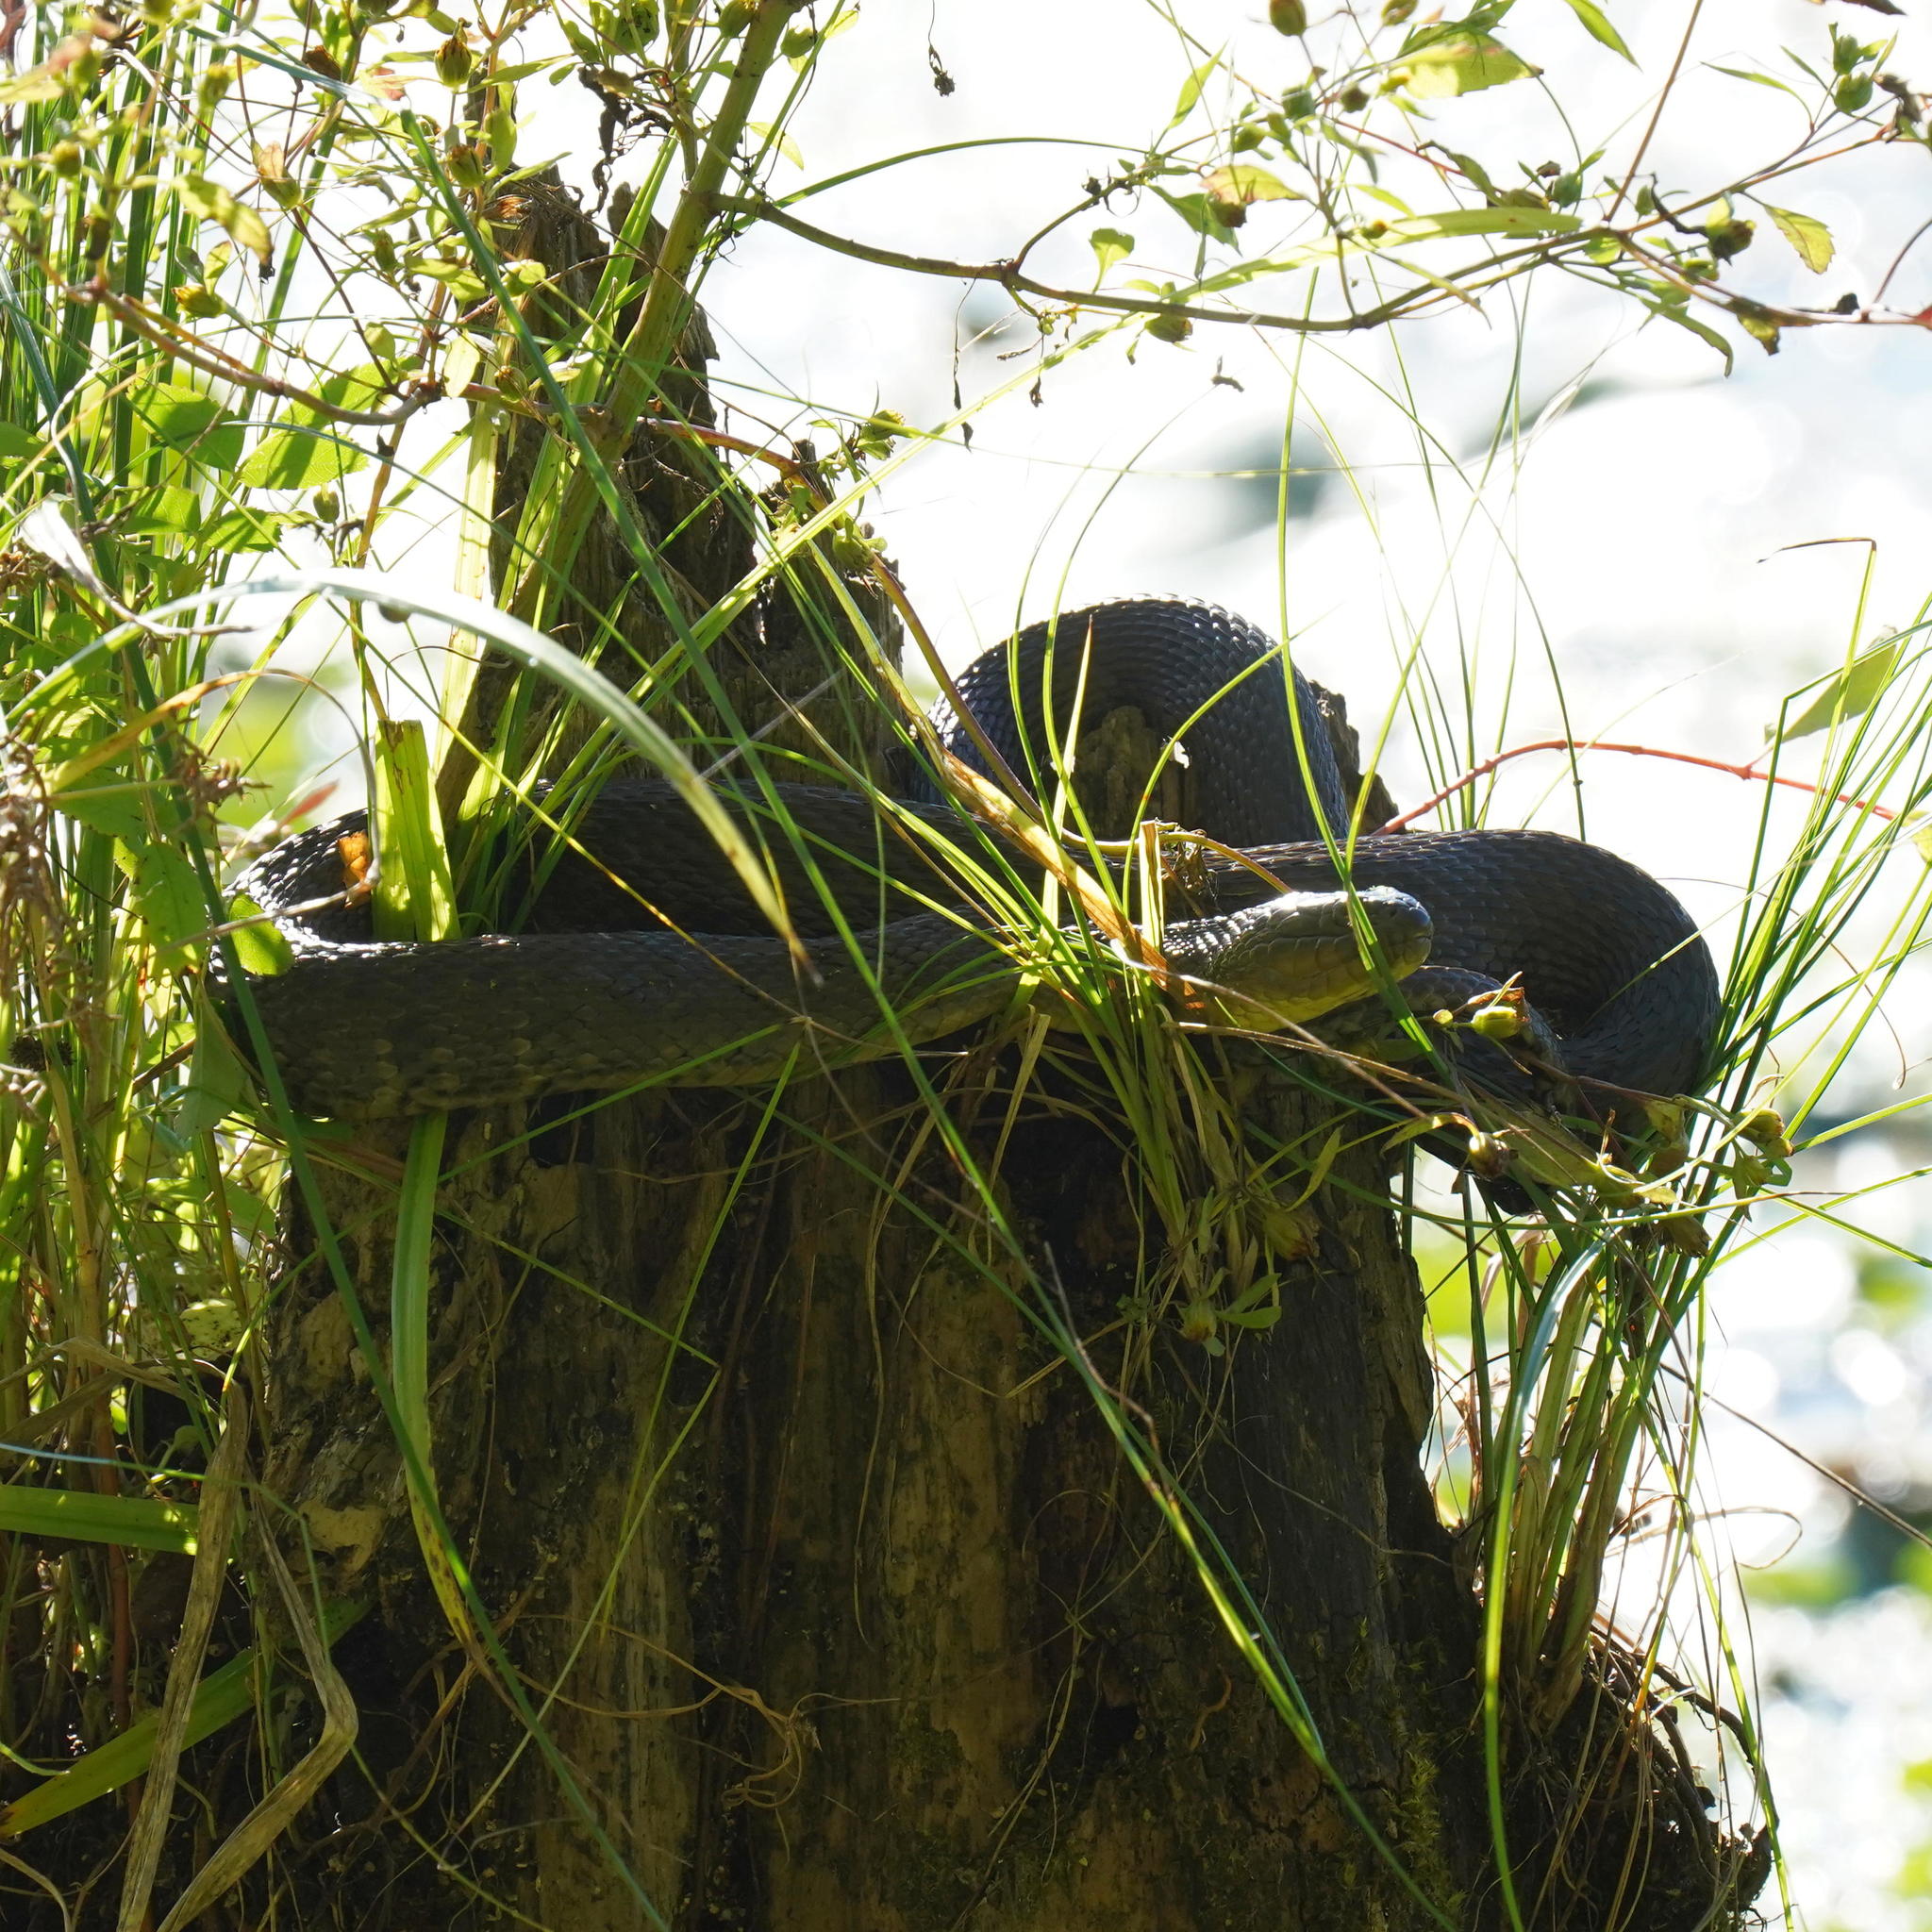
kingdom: Animalia
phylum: Chordata
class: Squamata
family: Colubridae
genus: Nerodia
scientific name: Nerodia cyclopion
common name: Mississippi green water snake
